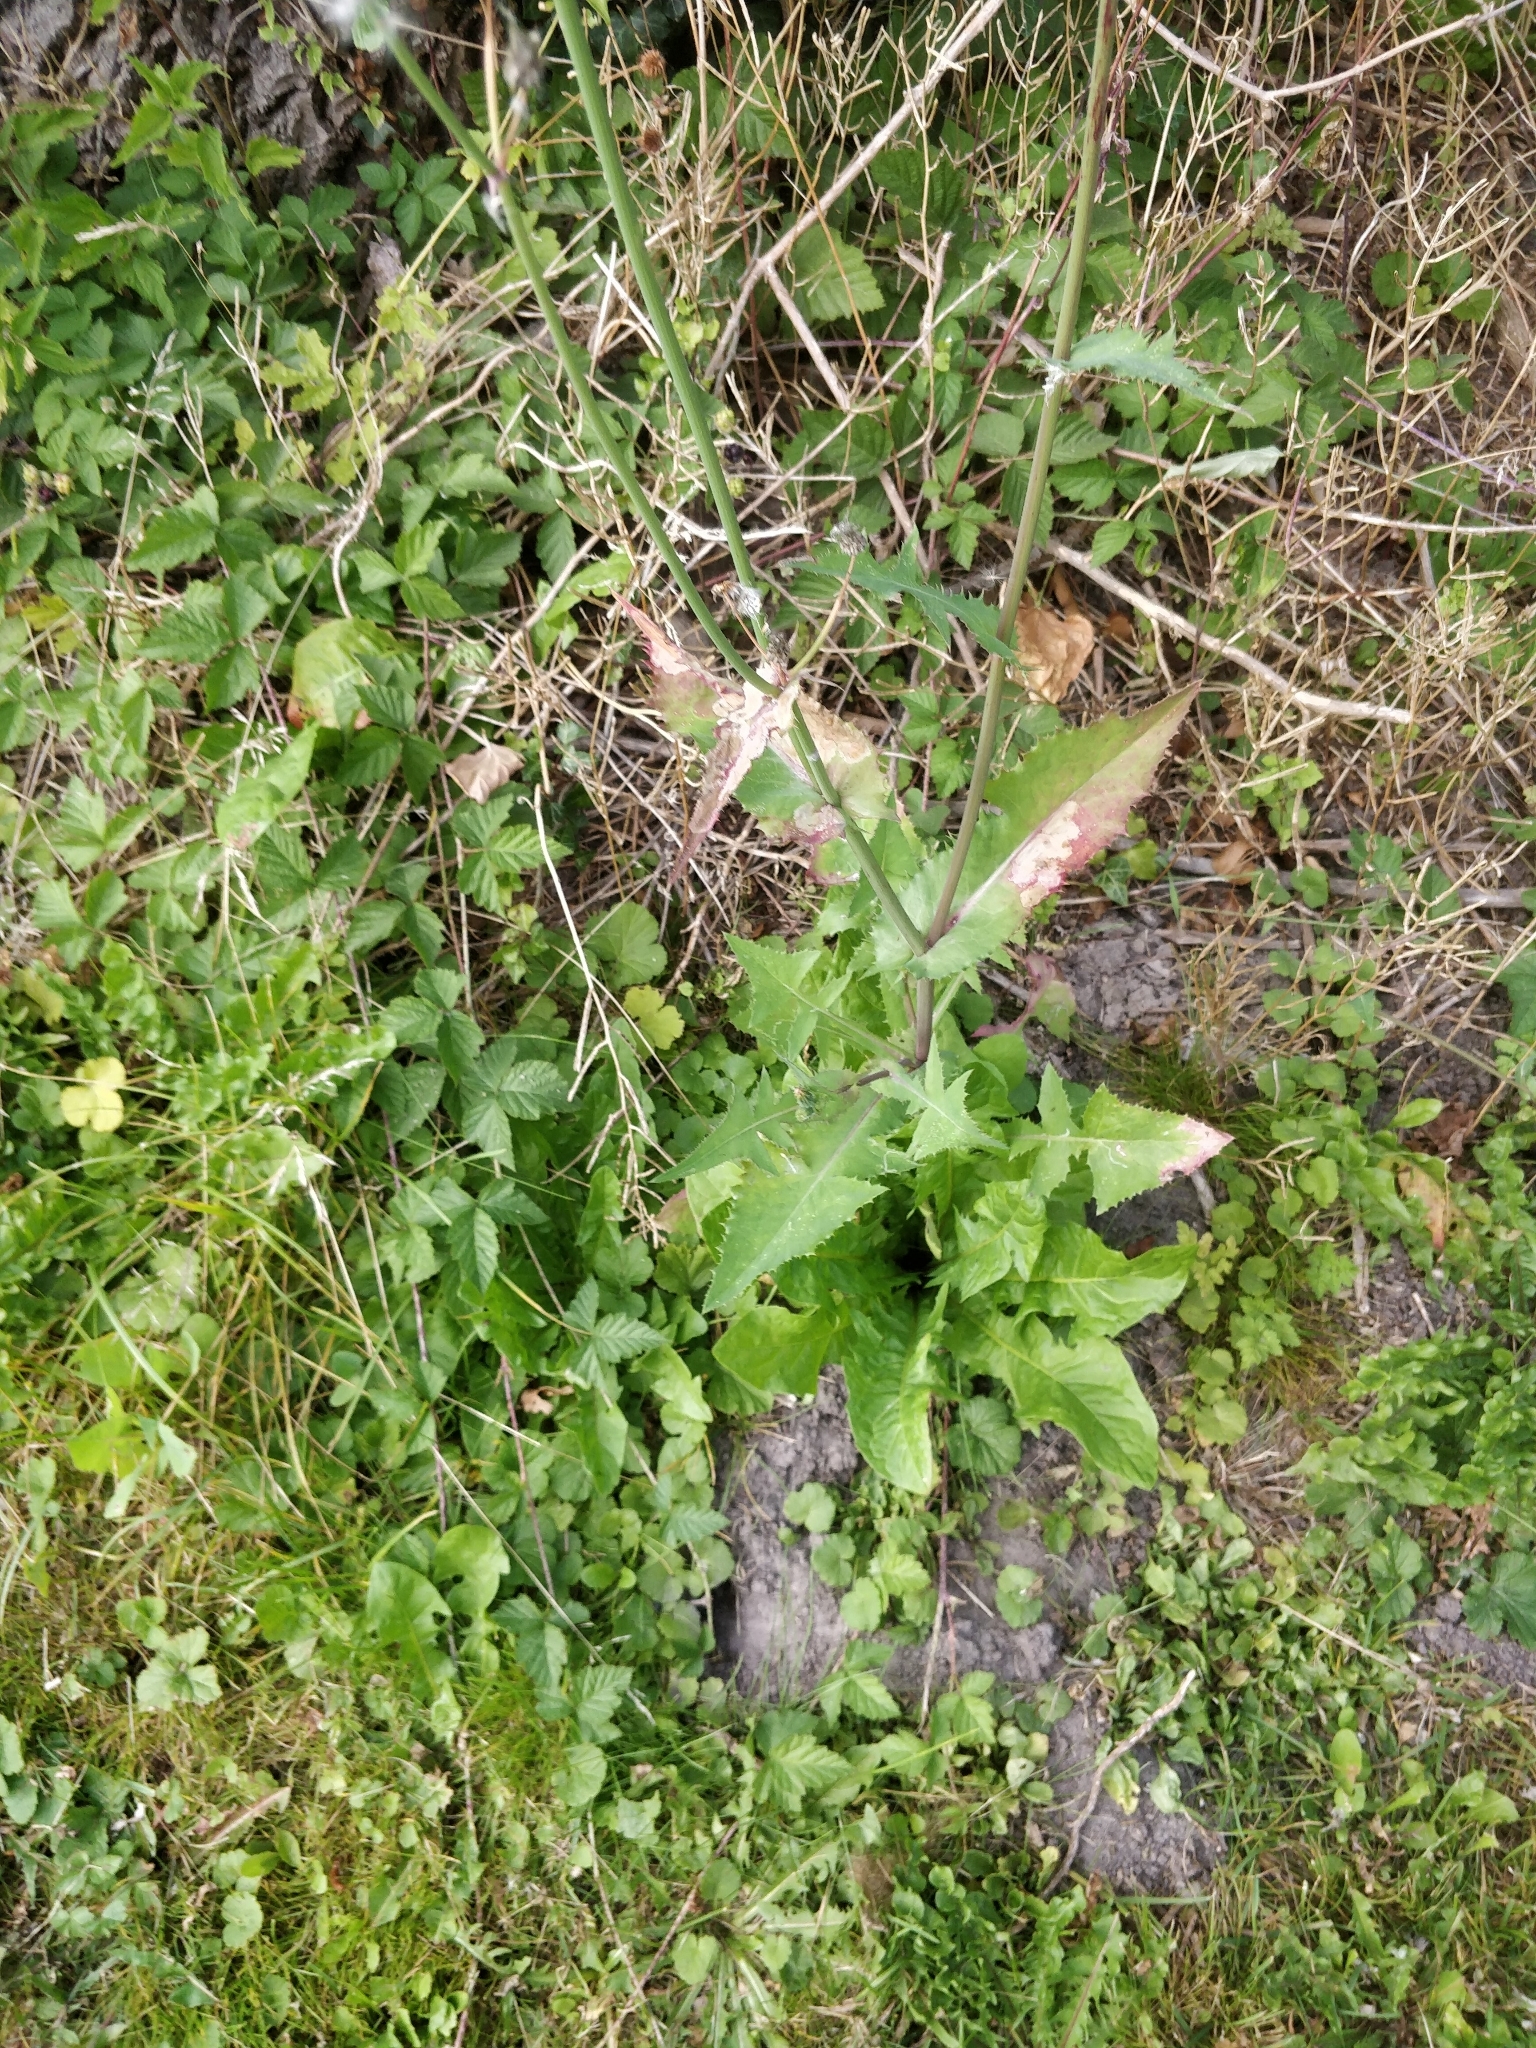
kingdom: Plantae
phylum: Tracheophyta
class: Magnoliopsida
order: Asterales
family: Asteraceae
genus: Sonchus
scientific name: Sonchus oleraceus
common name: Common sowthistle
